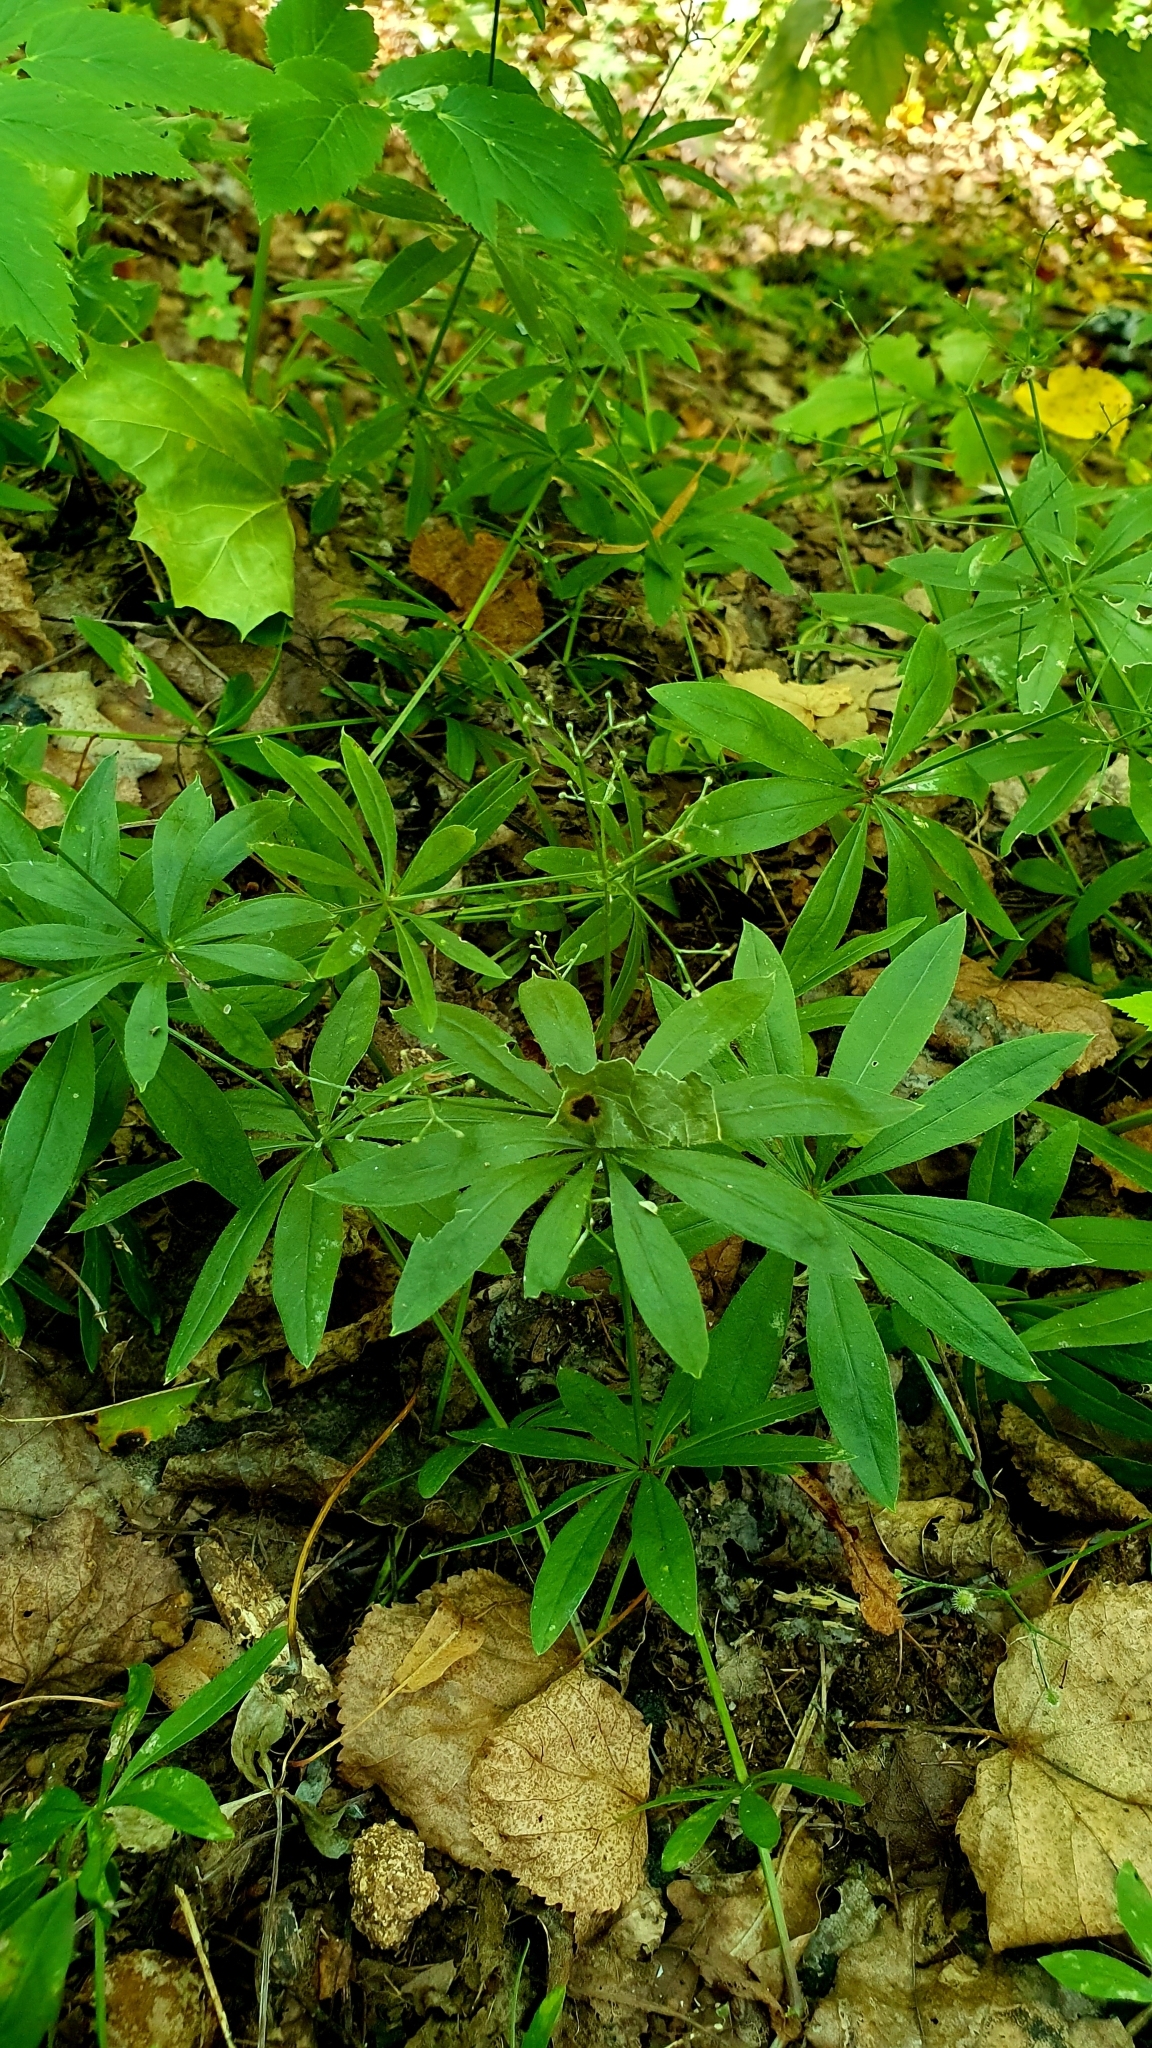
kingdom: Plantae
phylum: Tracheophyta
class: Magnoliopsida
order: Gentianales
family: Rubiaceae
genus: Galium
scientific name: Galium odoratum
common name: Sweet woodruff
